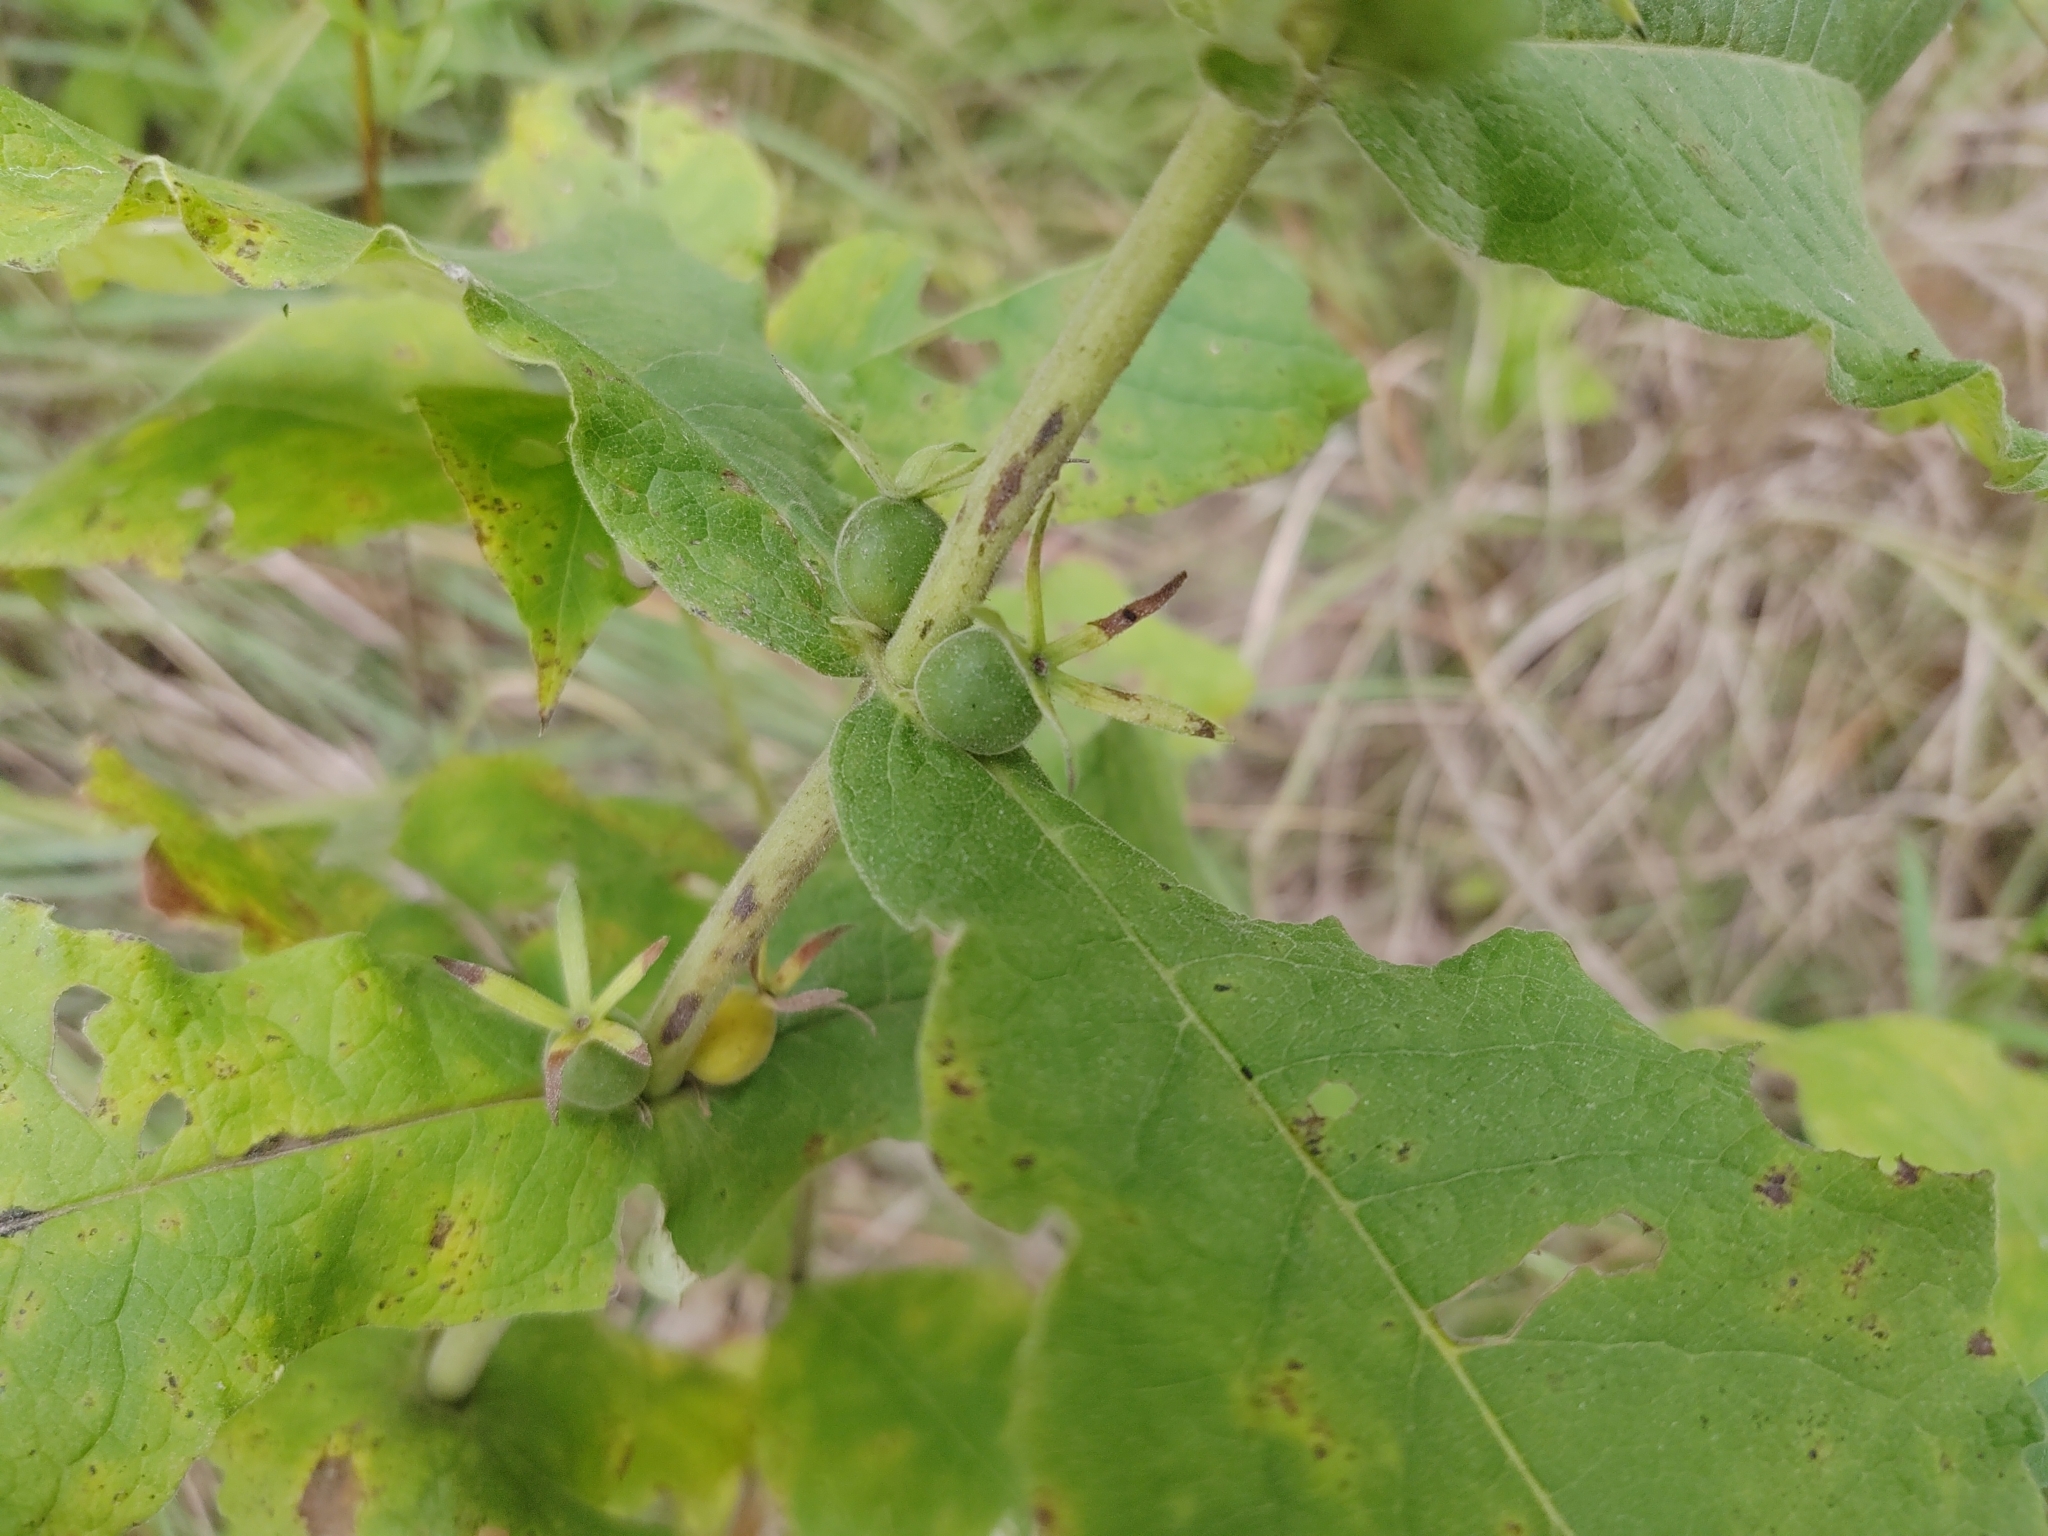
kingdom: Plantae
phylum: Tracheophyta
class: Magnoliopsida
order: Dipsacales
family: Caprifoliaceae
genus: Triosteum
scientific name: Triosteum perfoliatum
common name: Common horse-gentian
